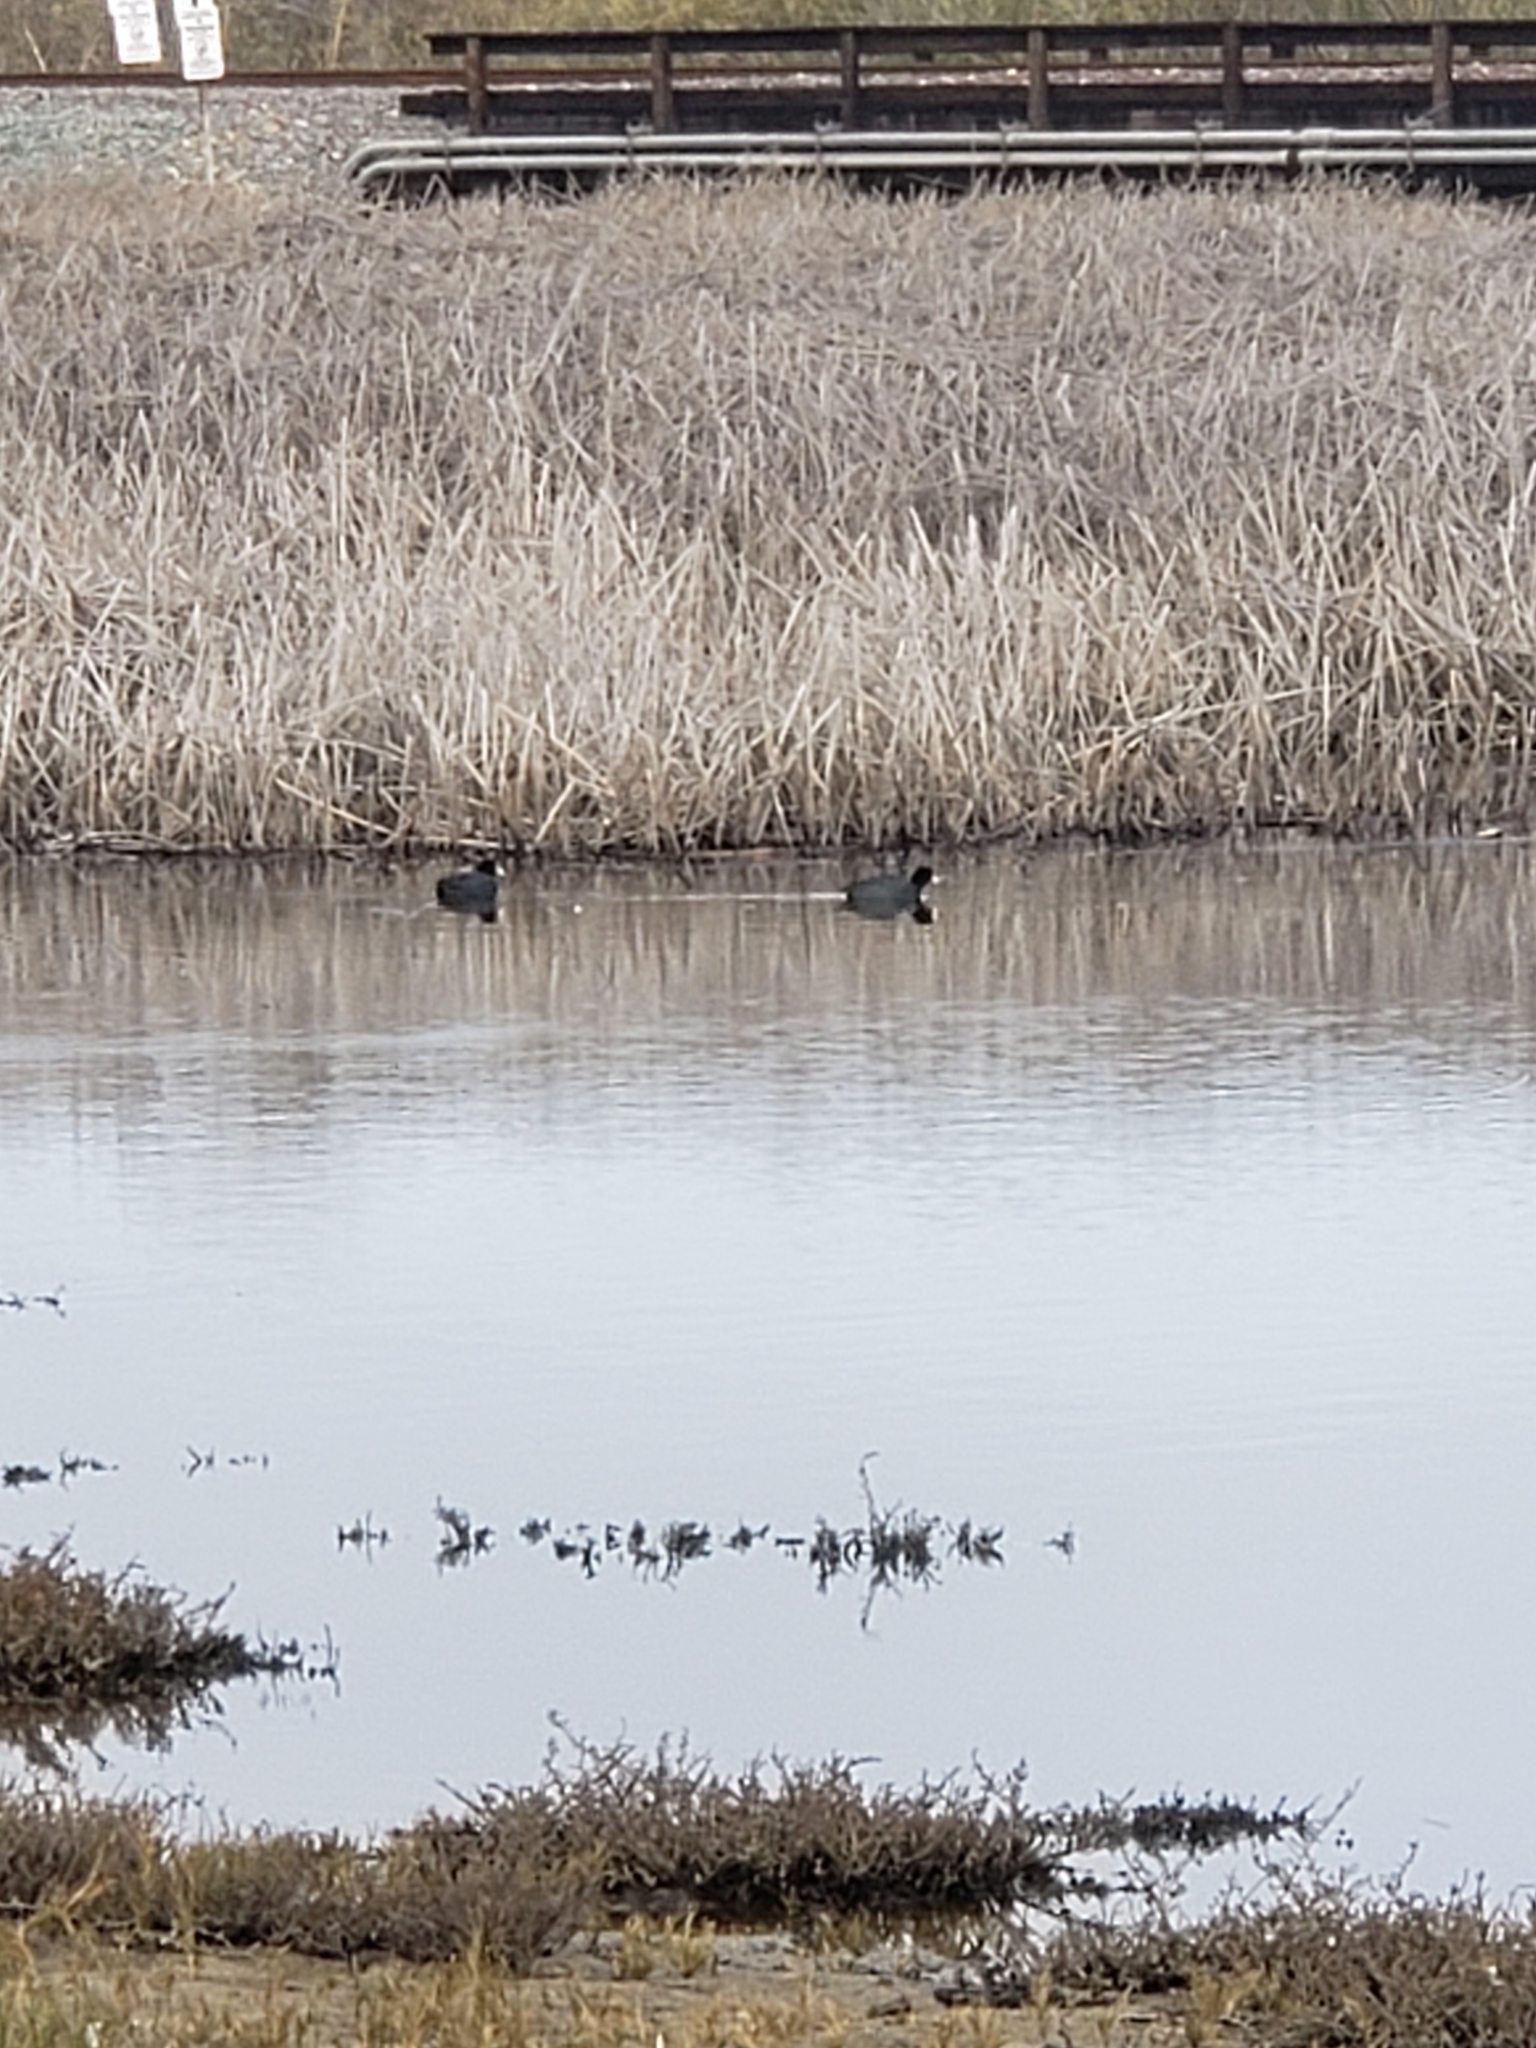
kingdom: Animalia
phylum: Chordata
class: Aves
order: Gruiformes
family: Rallidae
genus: Fulica
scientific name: Fulica americana
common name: American coot
